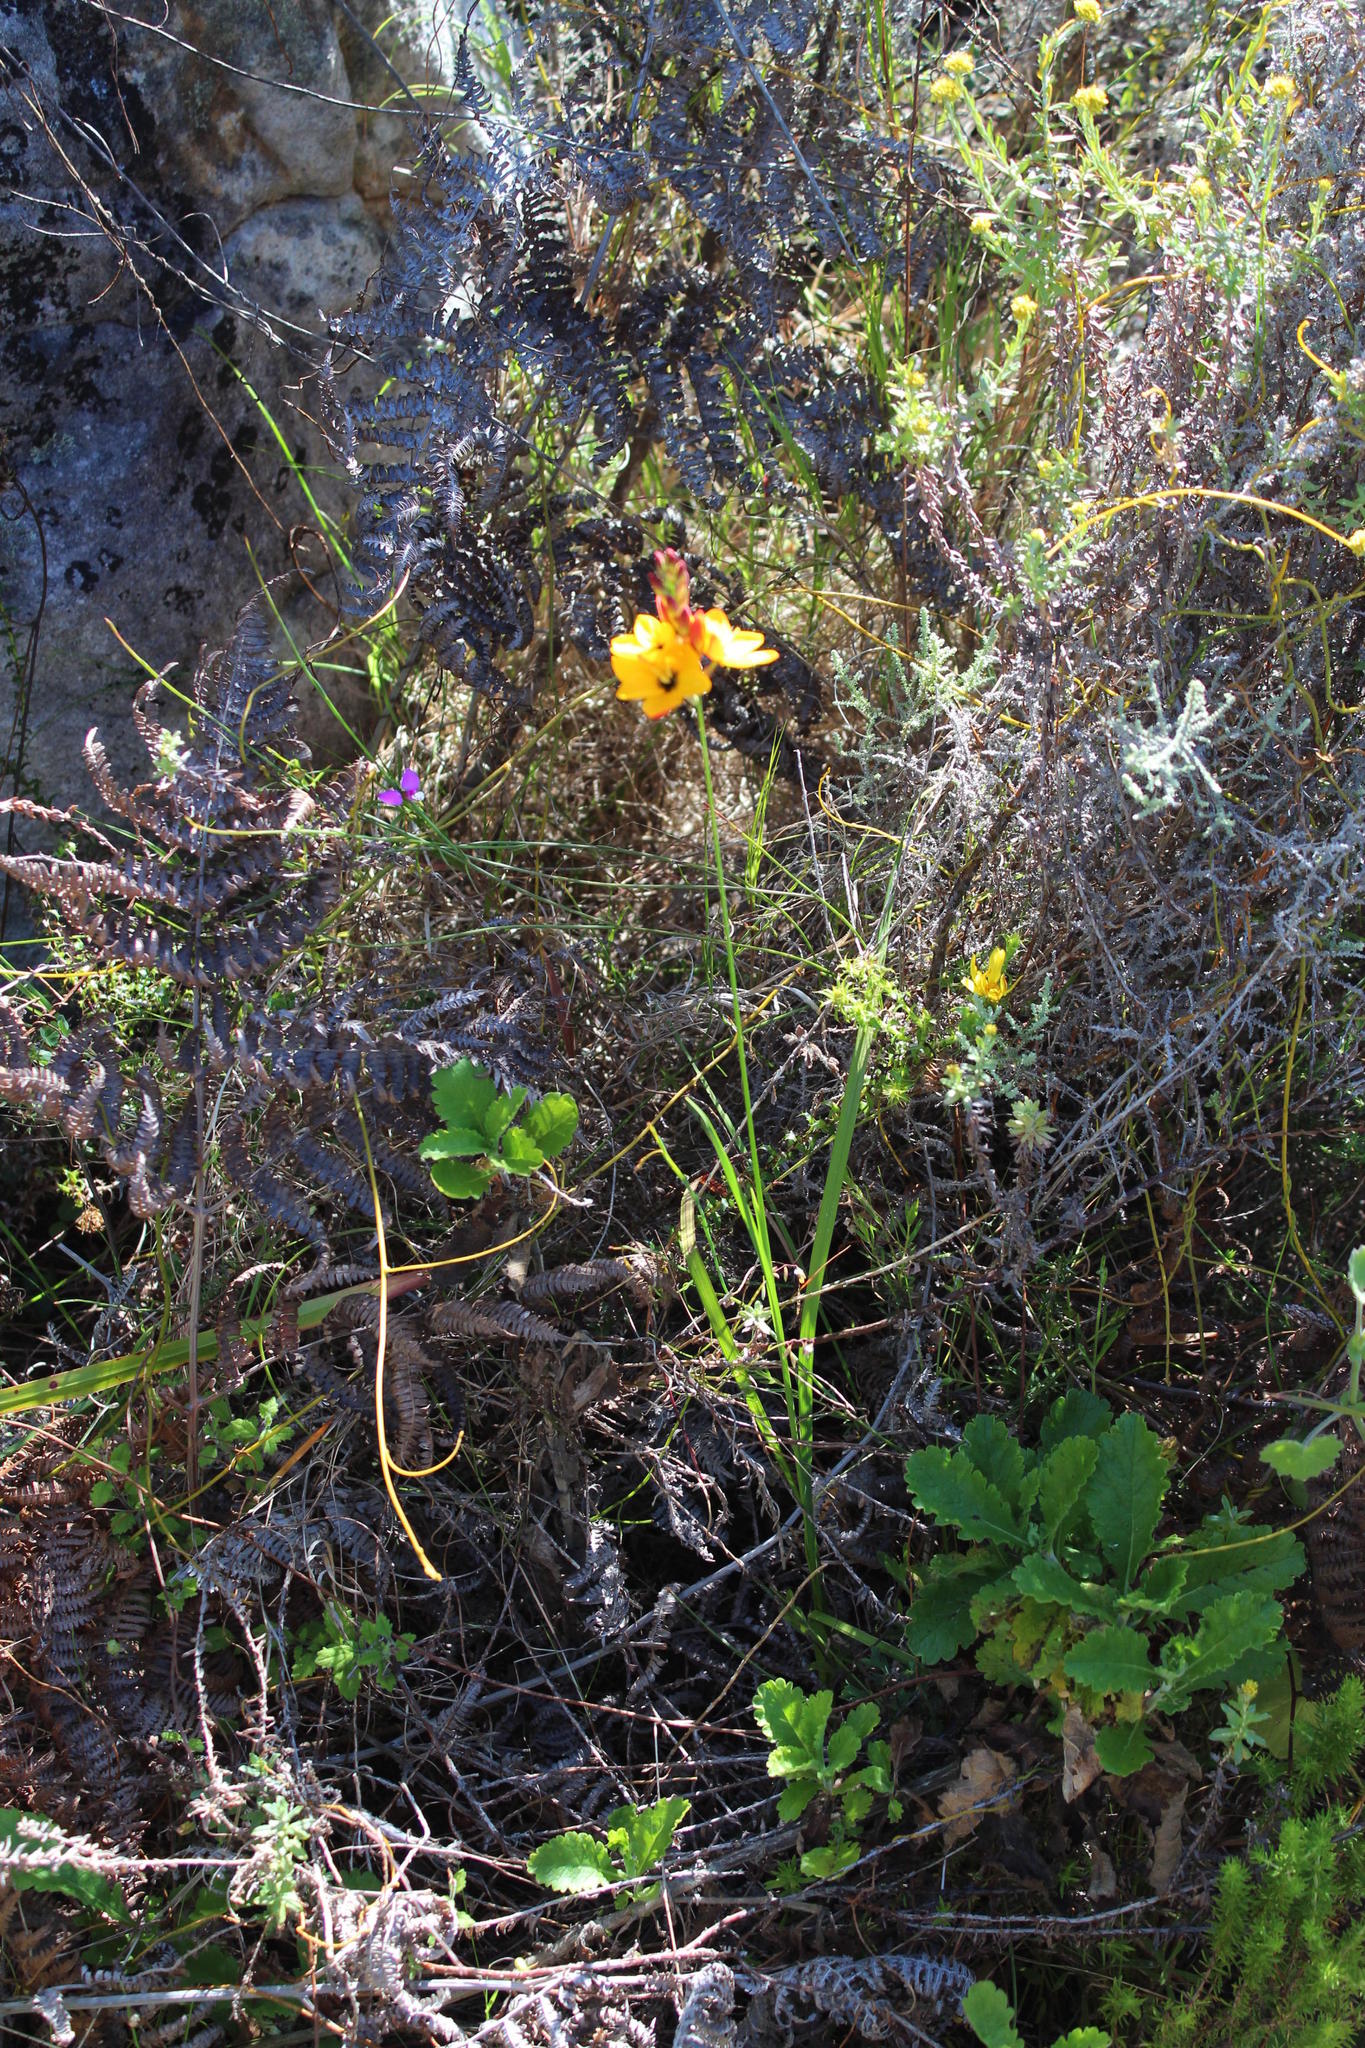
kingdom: Plantae
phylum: Tracheophyta
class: Liliopsida
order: Asparagales
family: Iridaceae
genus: Ixia
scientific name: Ixia dubia
